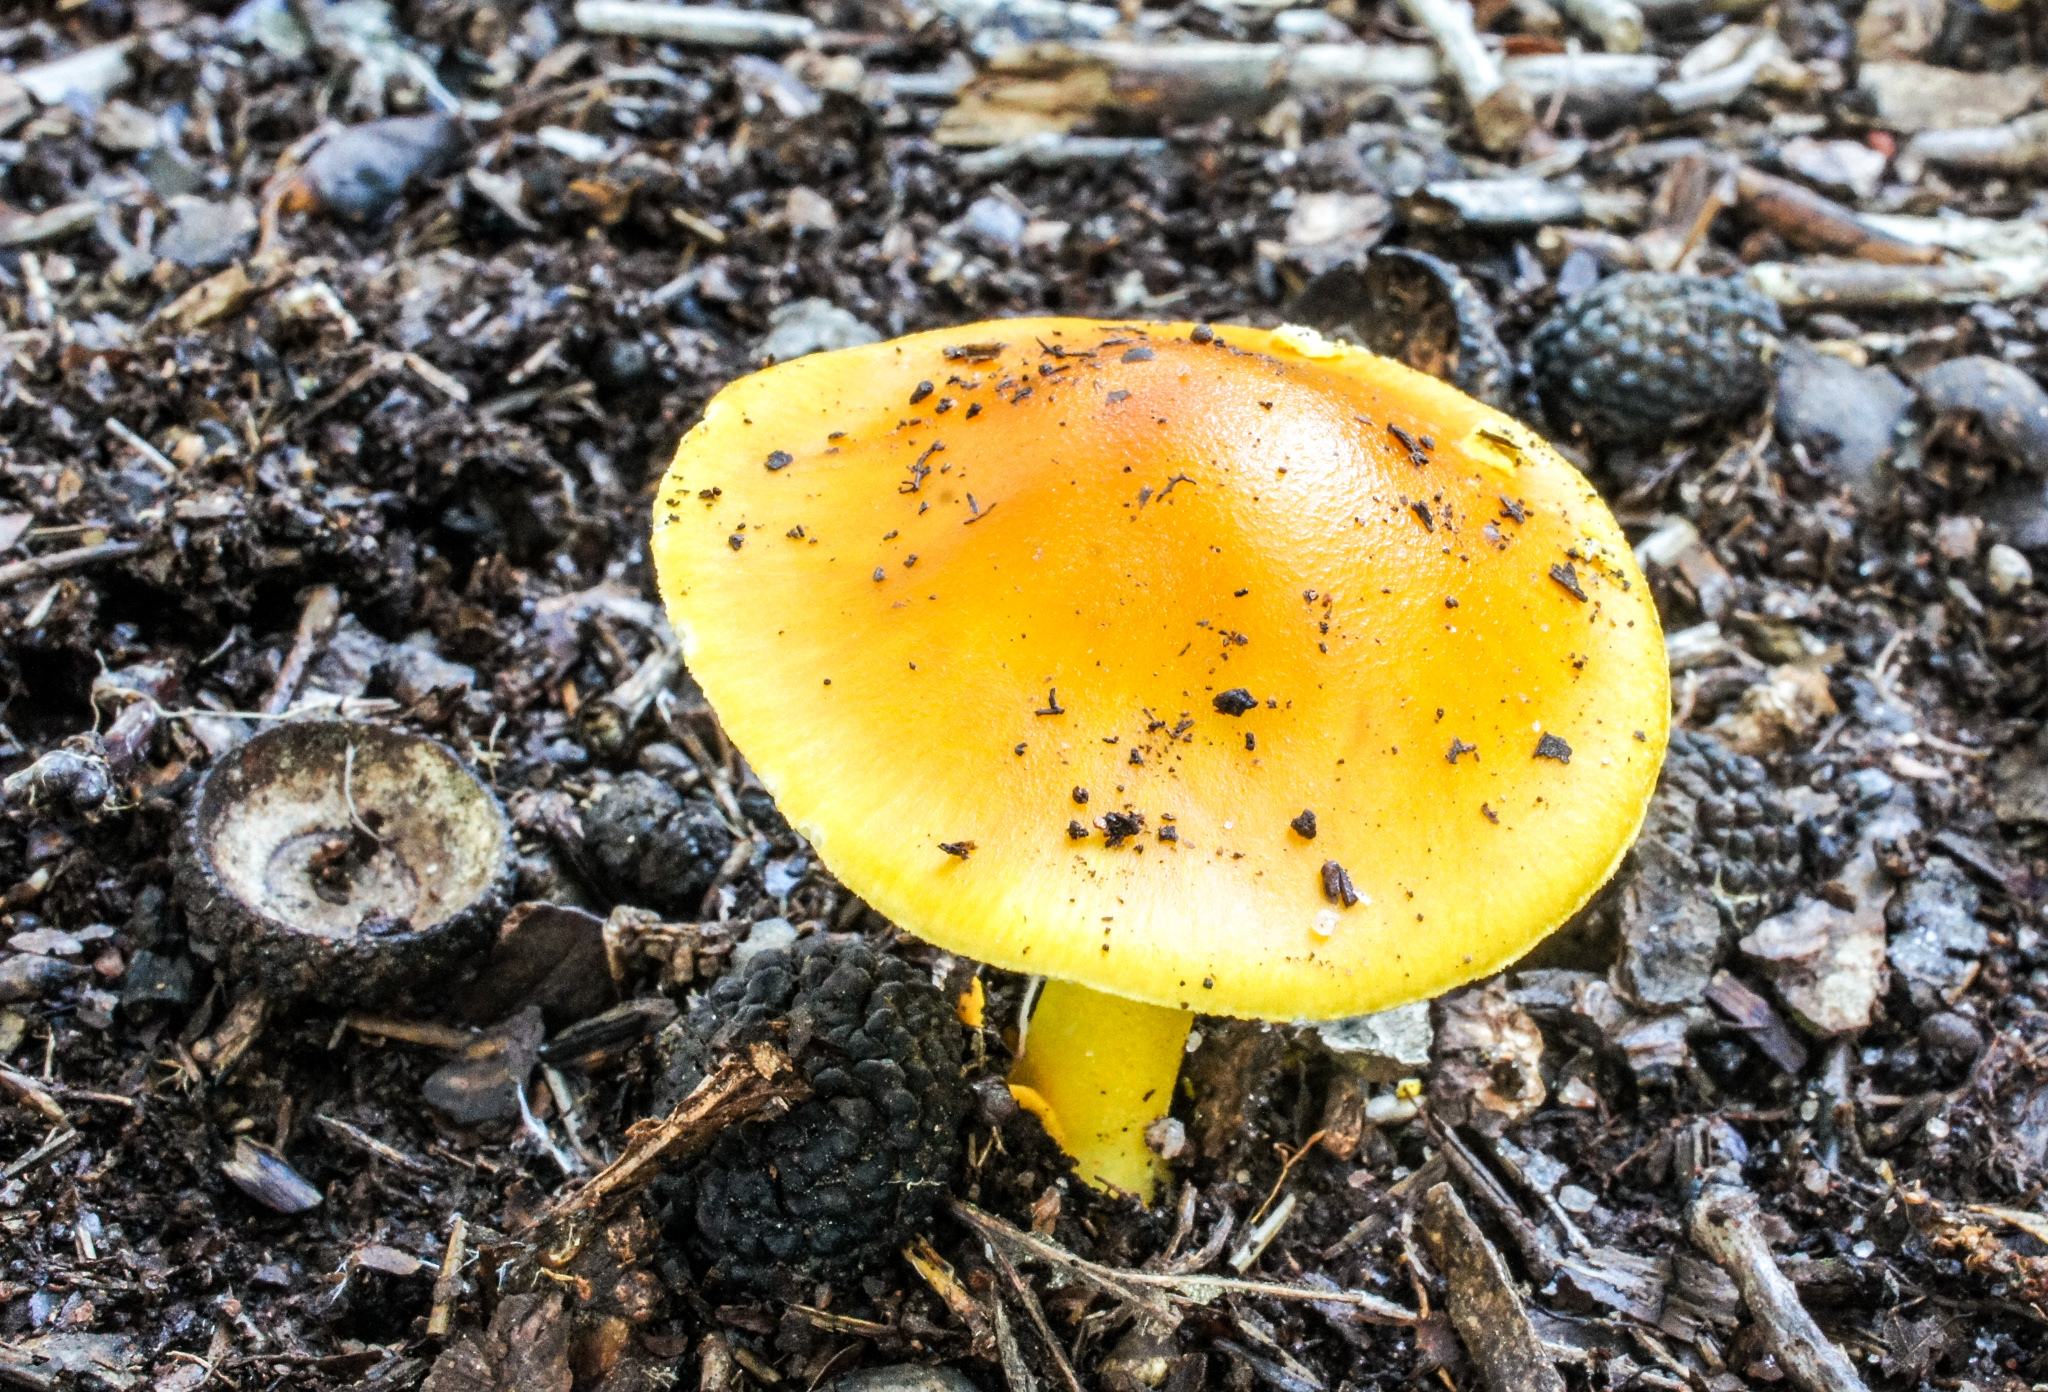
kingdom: Fungi
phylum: Basidiomycota
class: Agaricomycetes
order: Agaricales
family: Amanitaceae
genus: Amanita
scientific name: Amanita flavoconia
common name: Yellow patches
